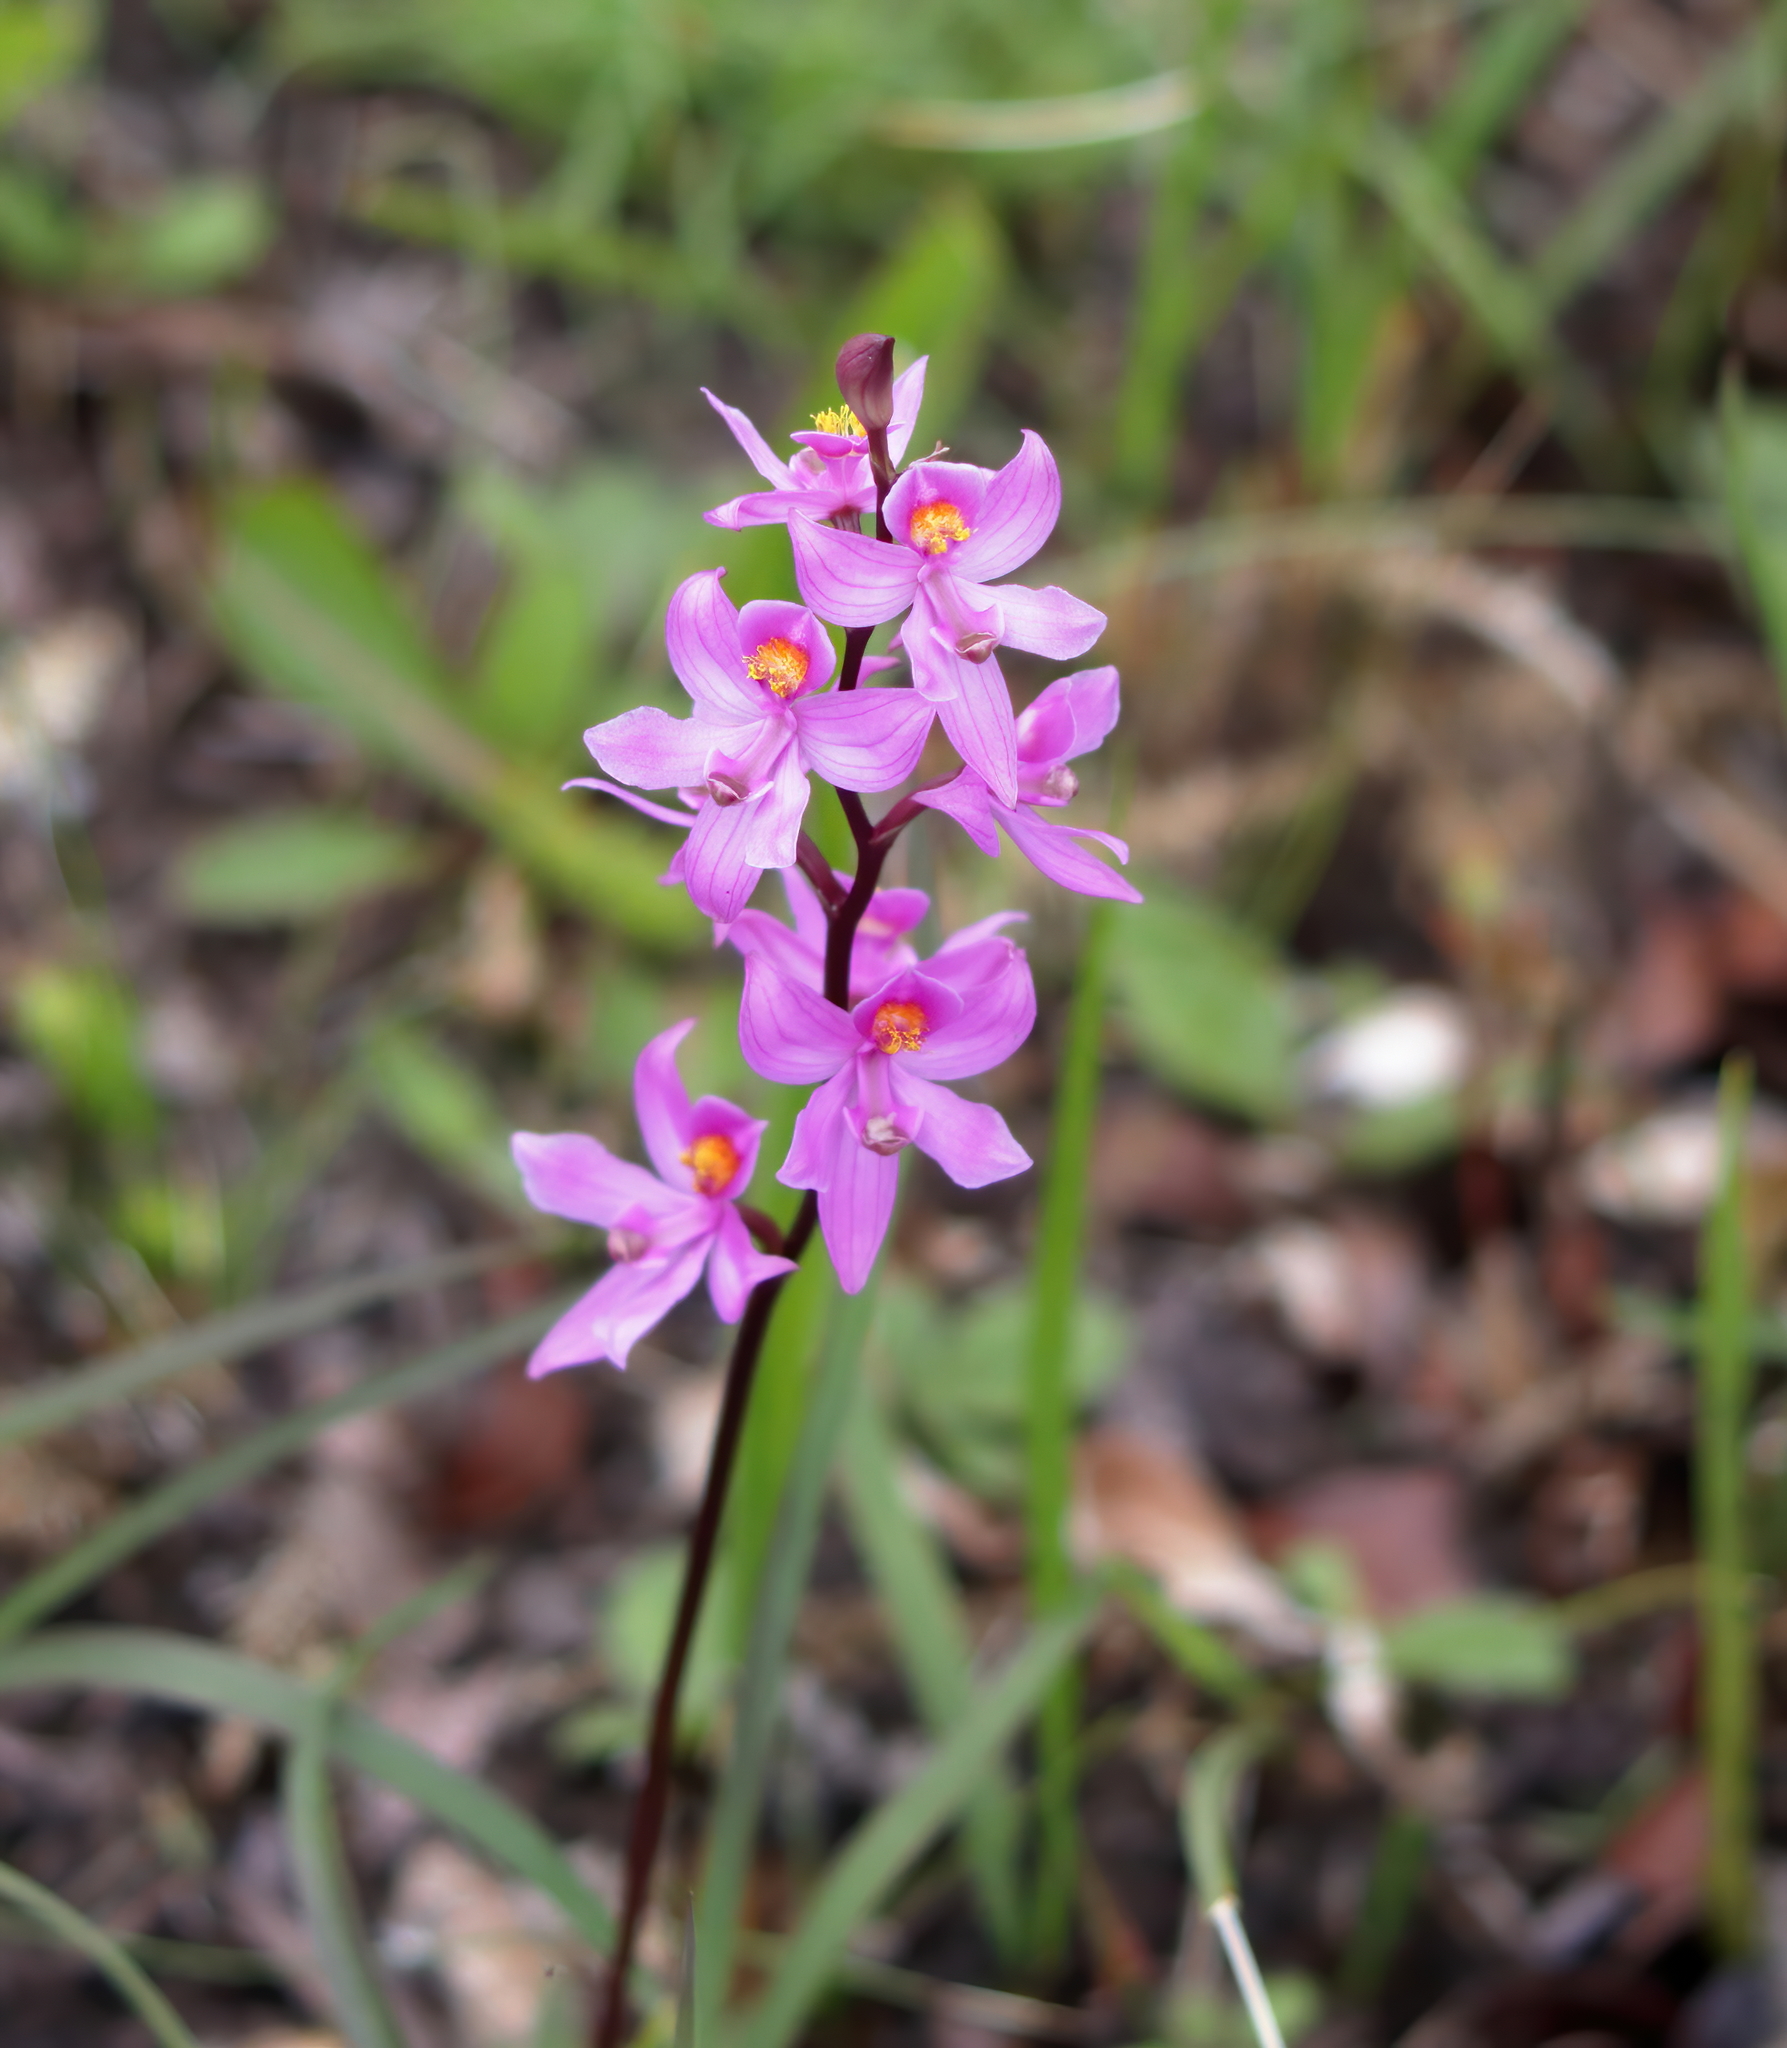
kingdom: Plantae
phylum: Tracheophyta
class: Liliopsida
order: Asparagales
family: Orchidaceae
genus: Calopogon
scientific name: Calopogon multiflorus
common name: Many-flowered grass-pink orchid
